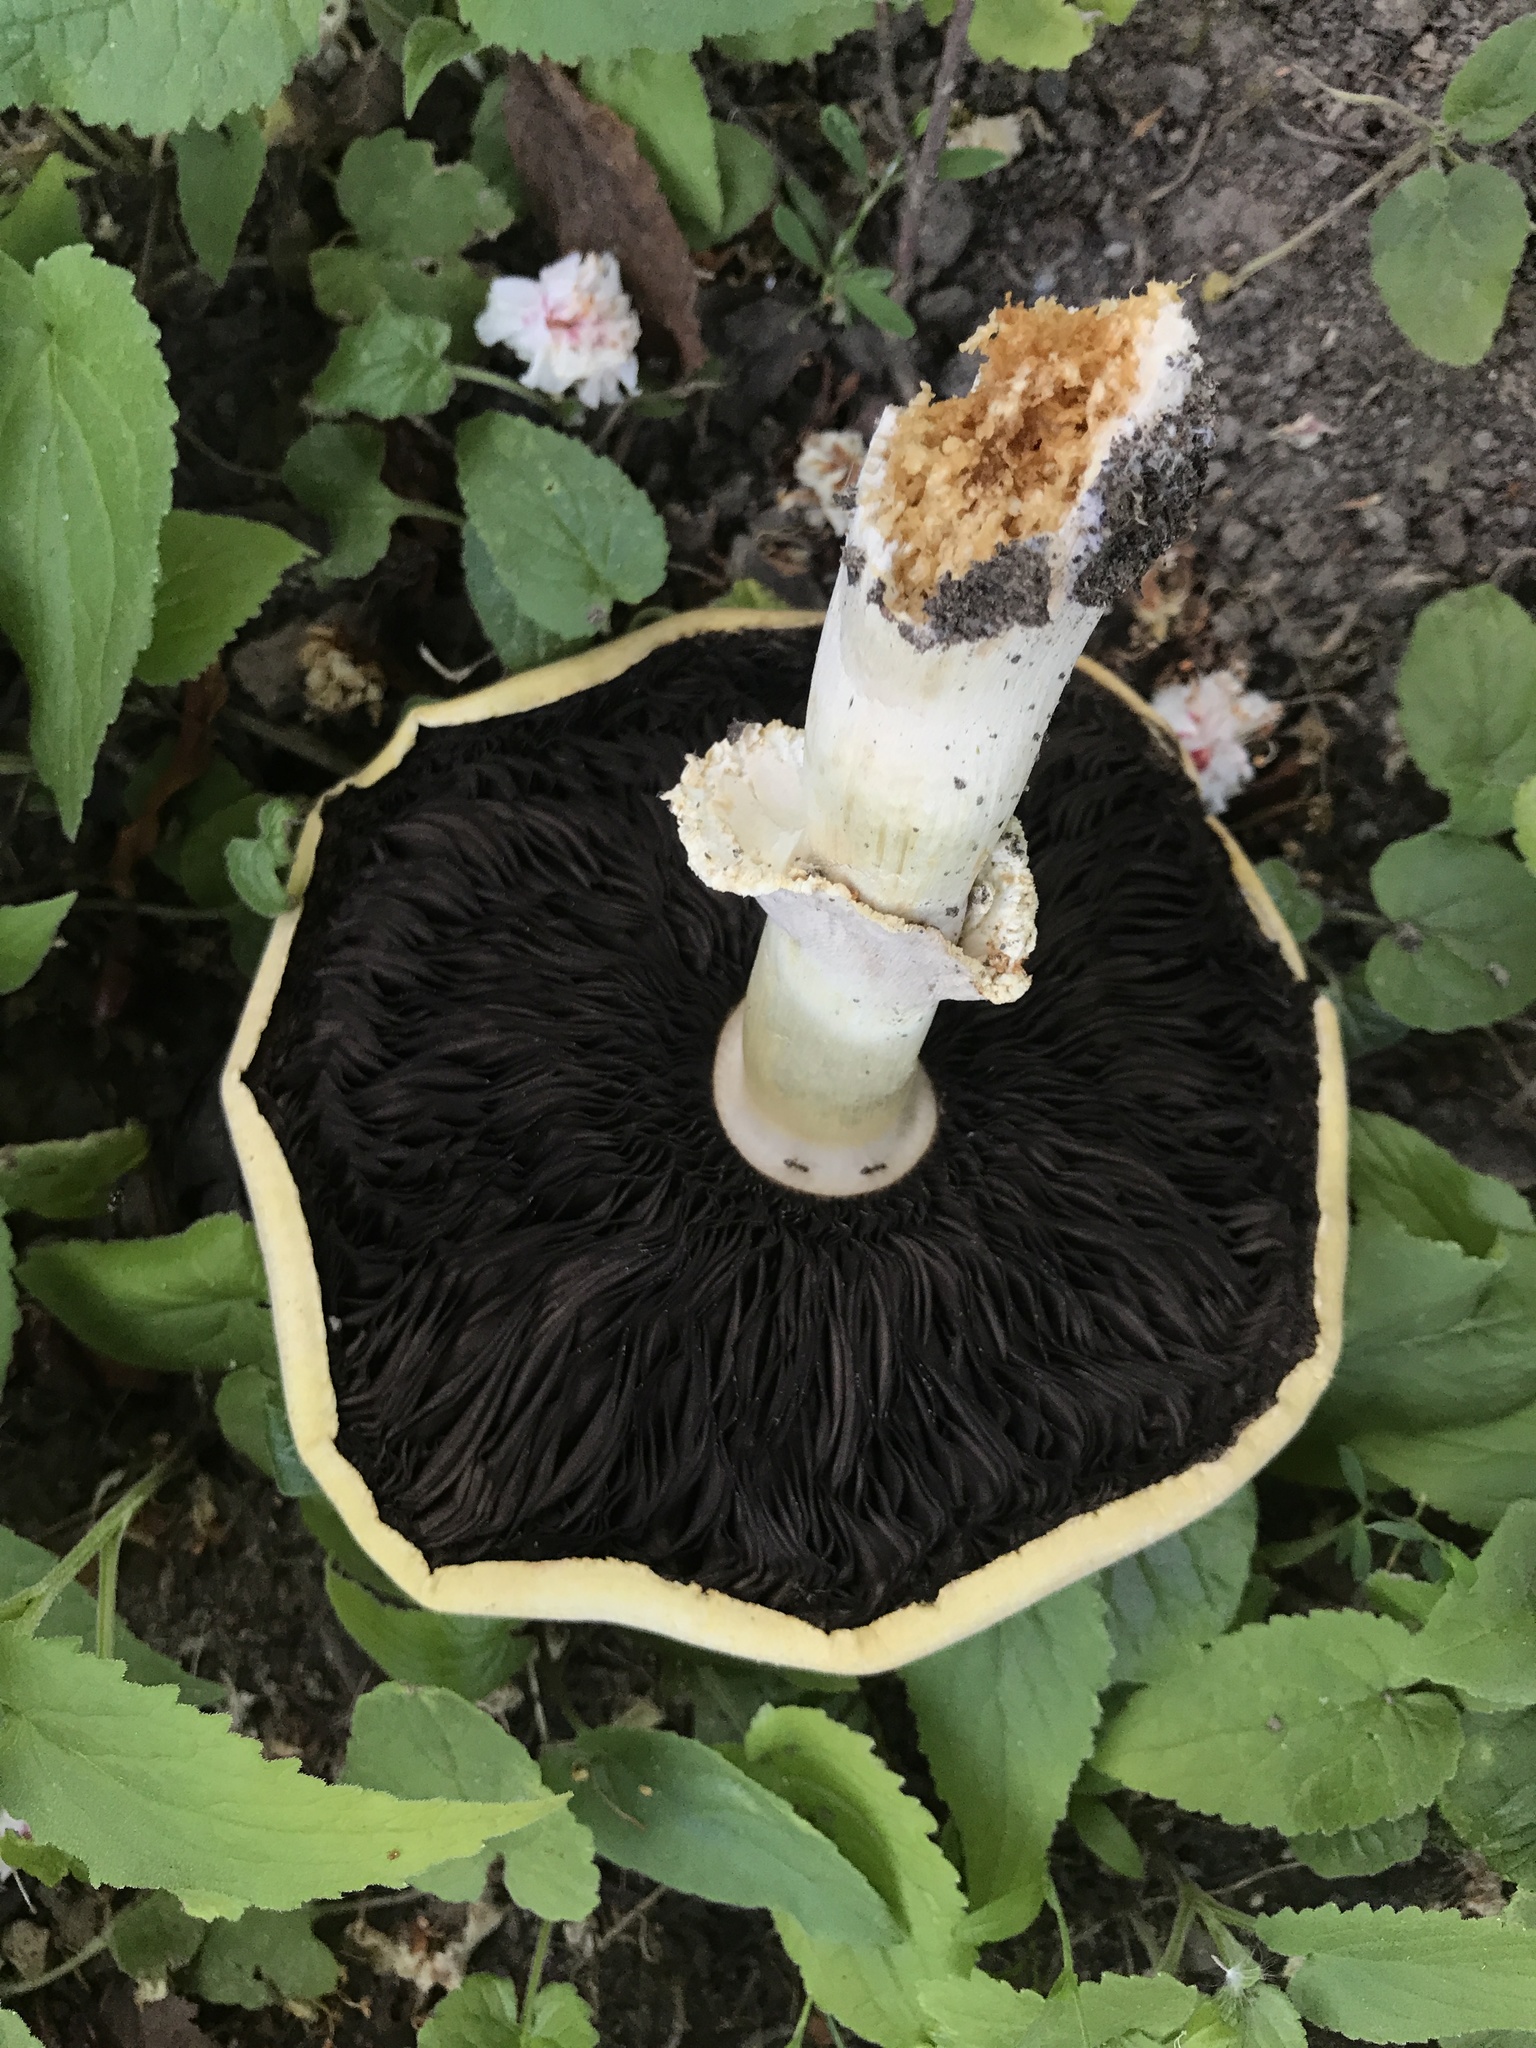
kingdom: Fungi
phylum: Basidiomycota
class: Agaricomycetes
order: Agaricales
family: Agaricaceae
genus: Agaricus
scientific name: Agaricus urinascens
